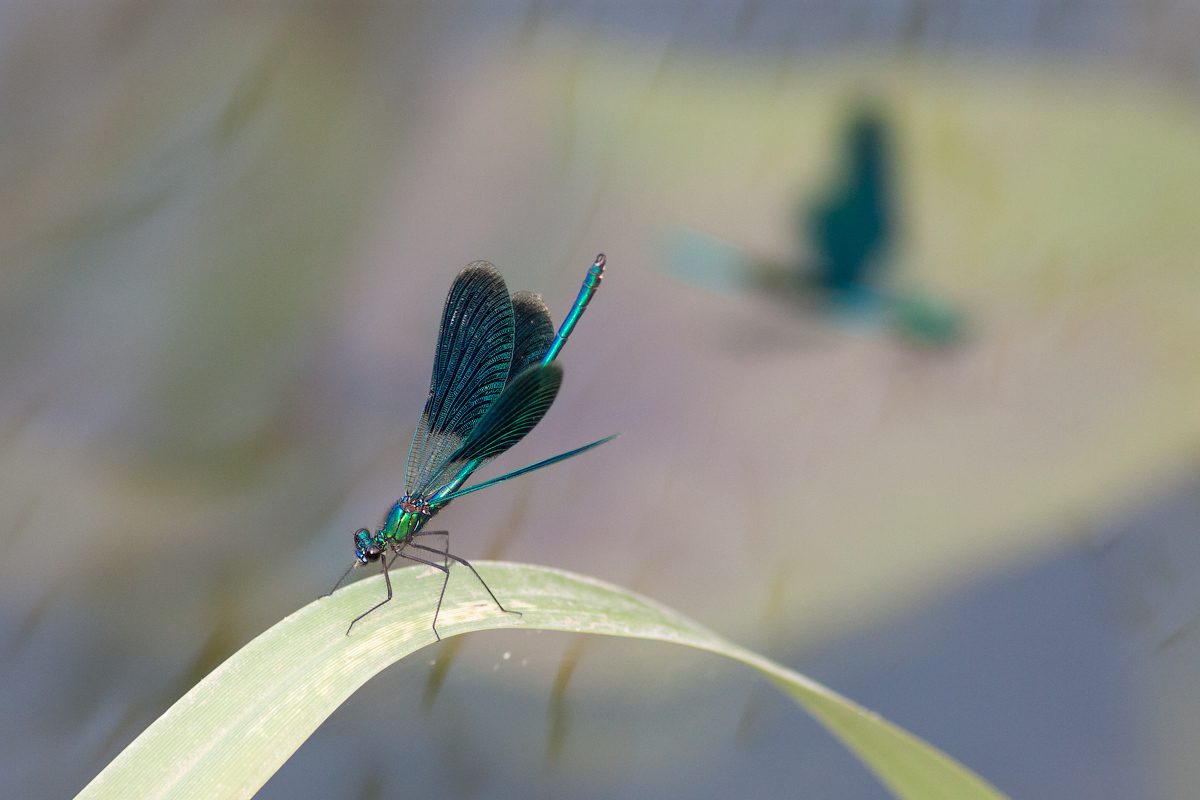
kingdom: Animalia
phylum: Arthropoda
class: Insecta
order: Odonata
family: Calopterygidae
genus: Calopteryx
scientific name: Calopteryx splendens
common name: Banded demoiselle
